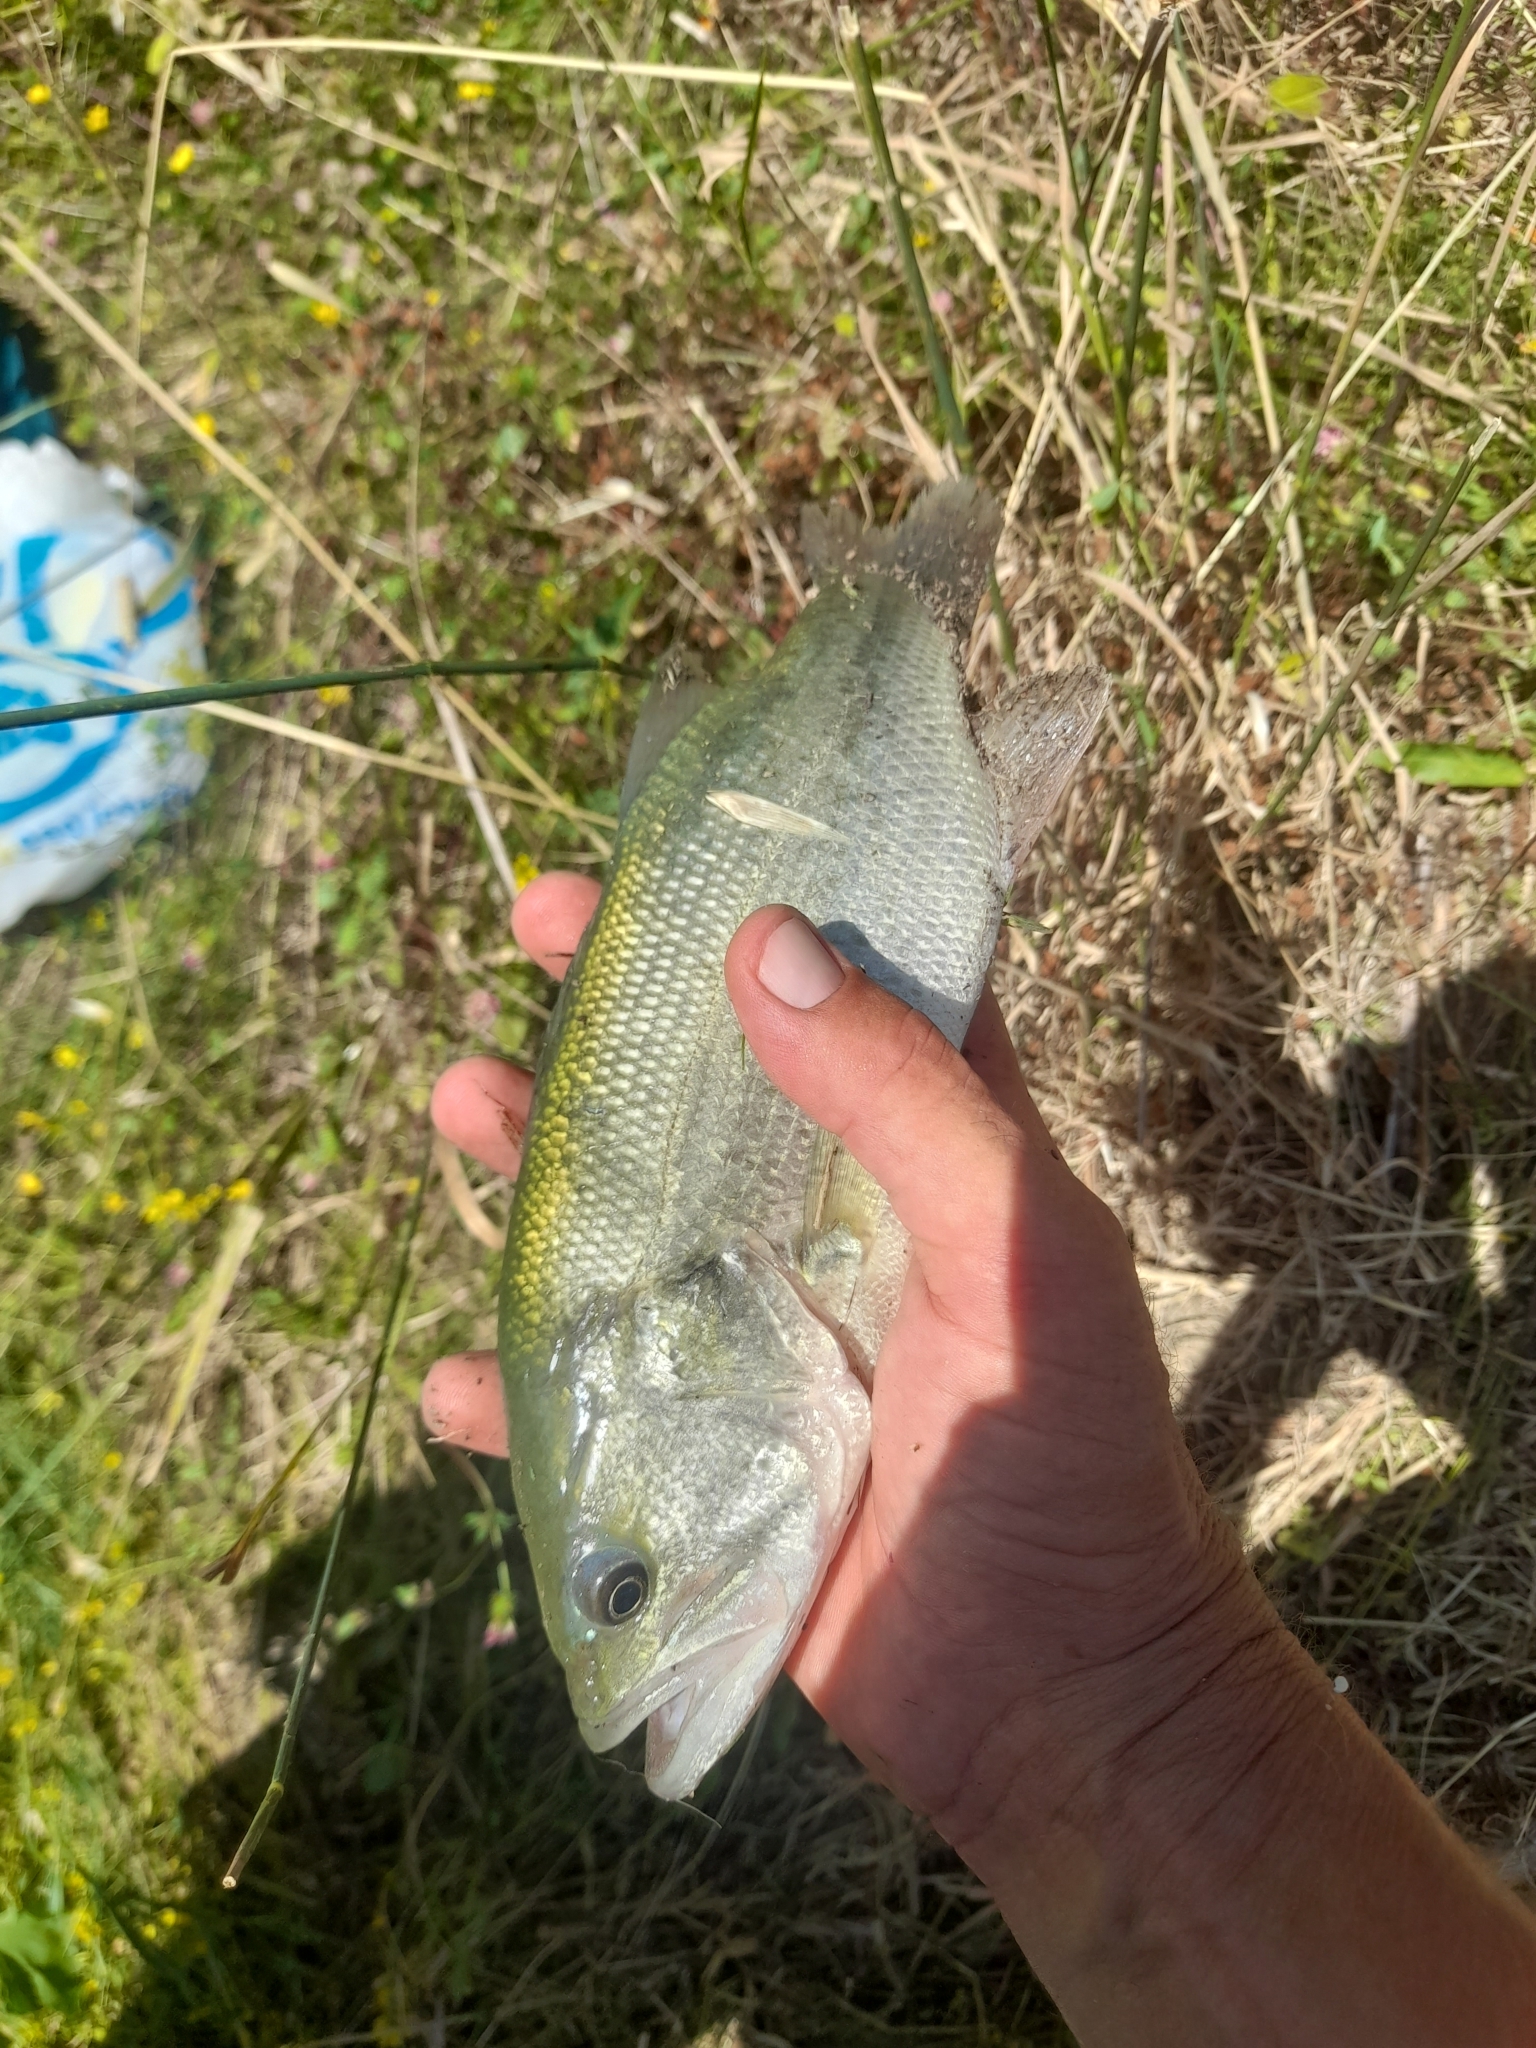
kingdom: Animalia
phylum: Chordata
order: Perciformes
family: Centrarchidae
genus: Micropterus
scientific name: Micropterus
